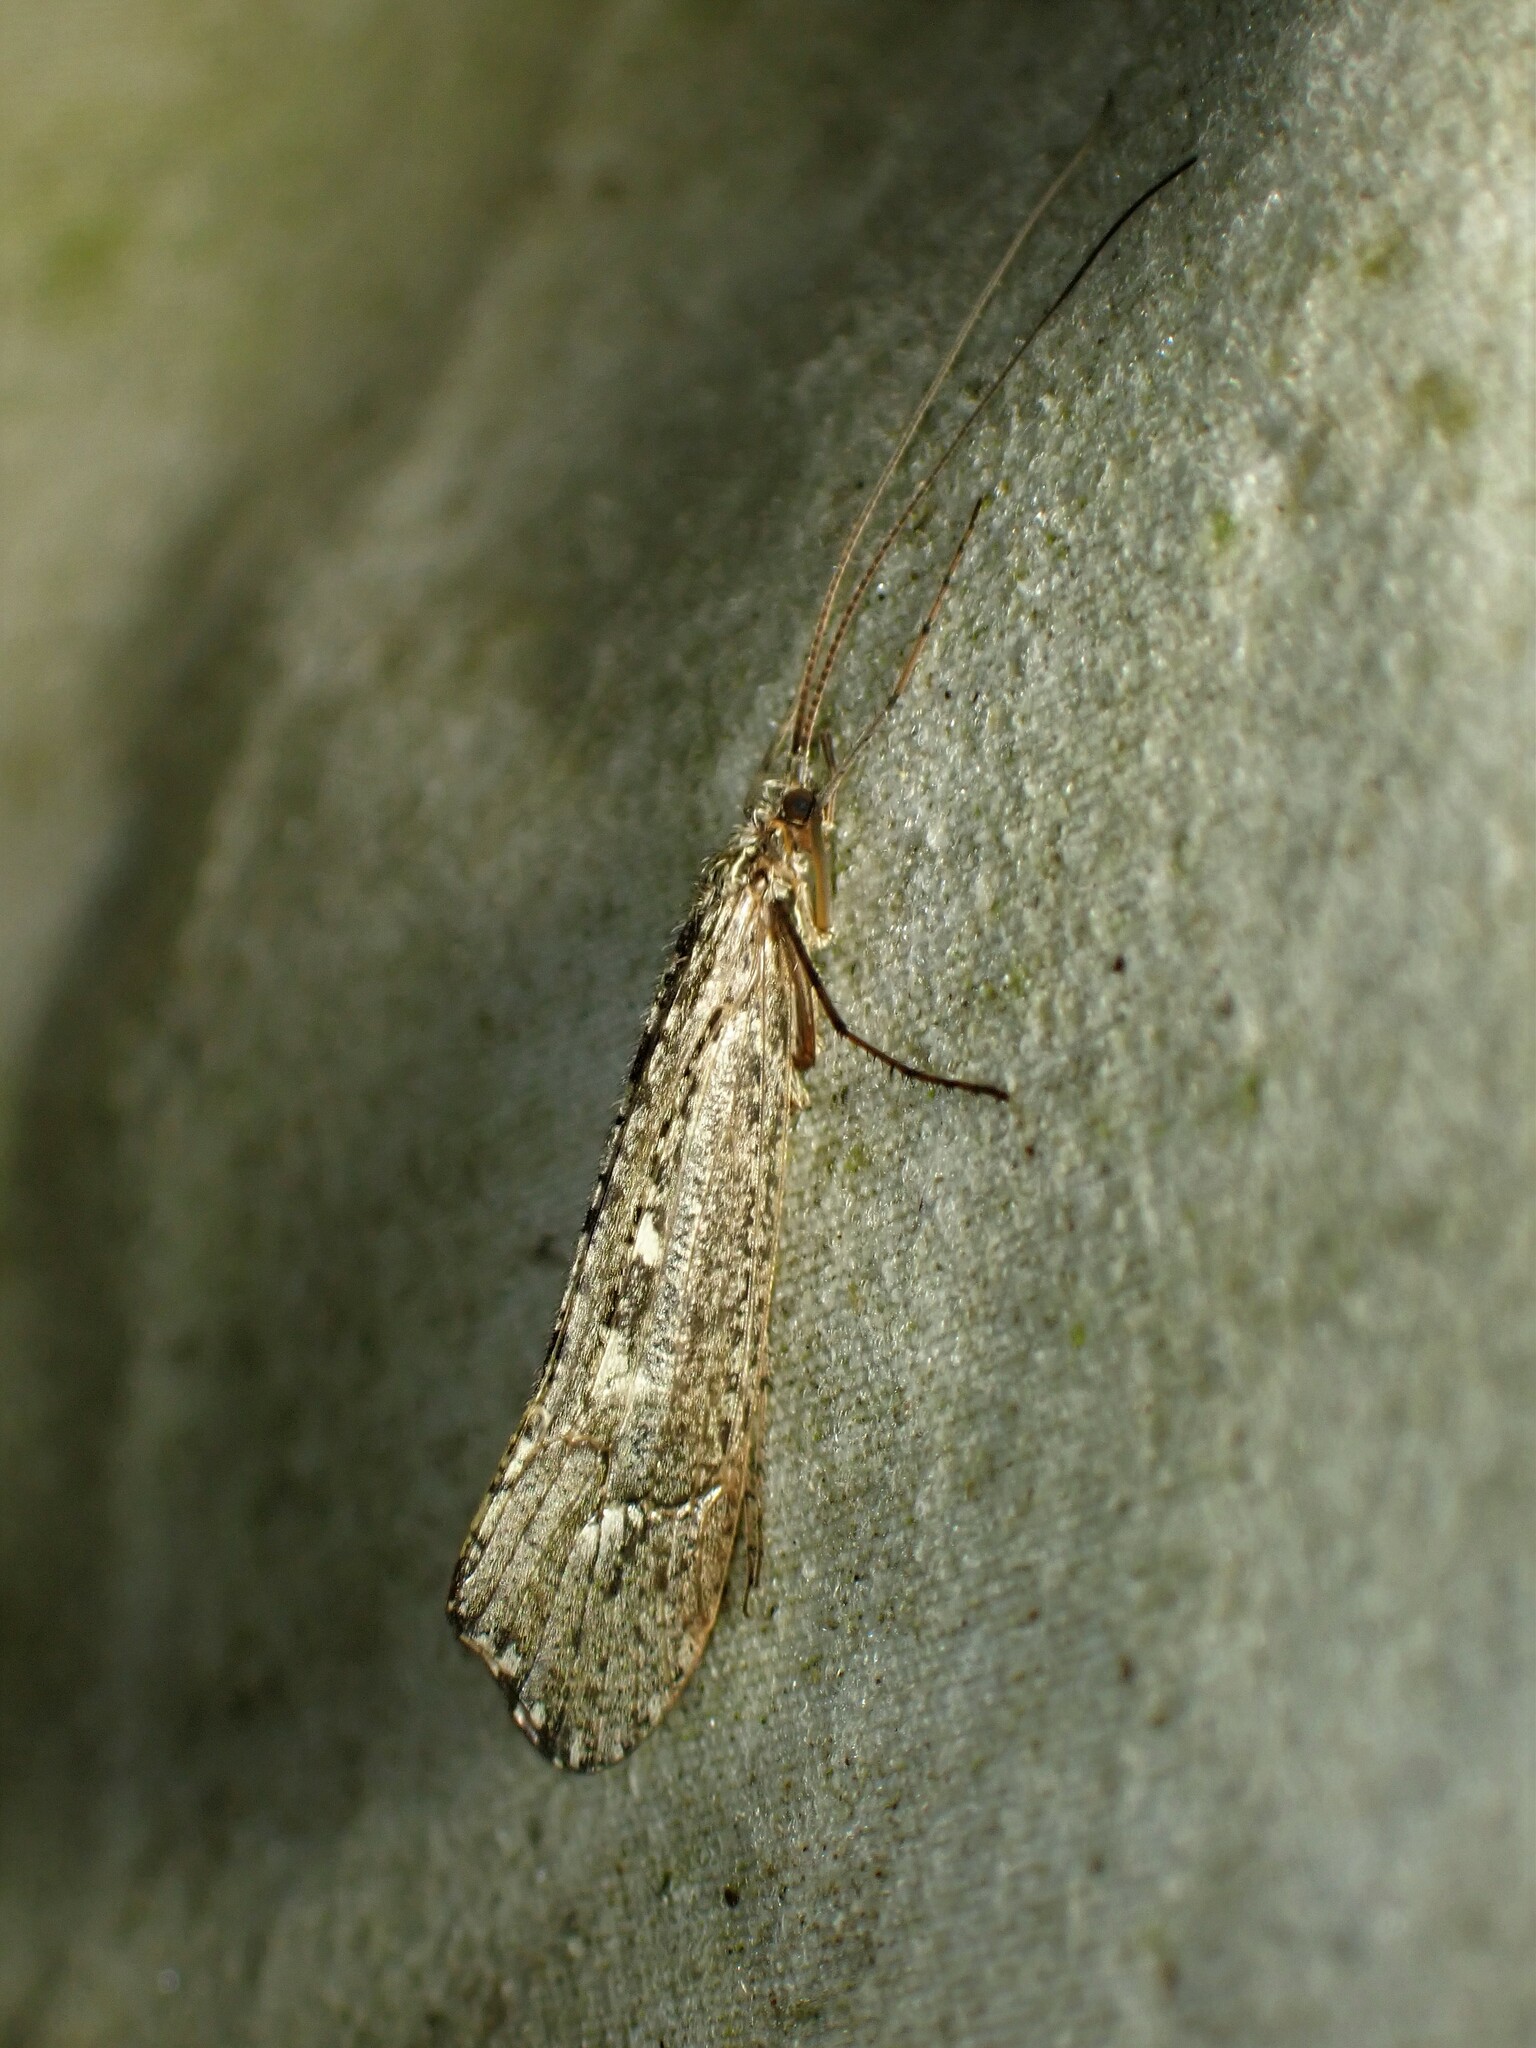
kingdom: Animalia
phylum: Arthropoda
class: Insecta
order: Trichoptera
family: Limnephilidae
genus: Glyphopsyche
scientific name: Glyphopsyche irrorata
